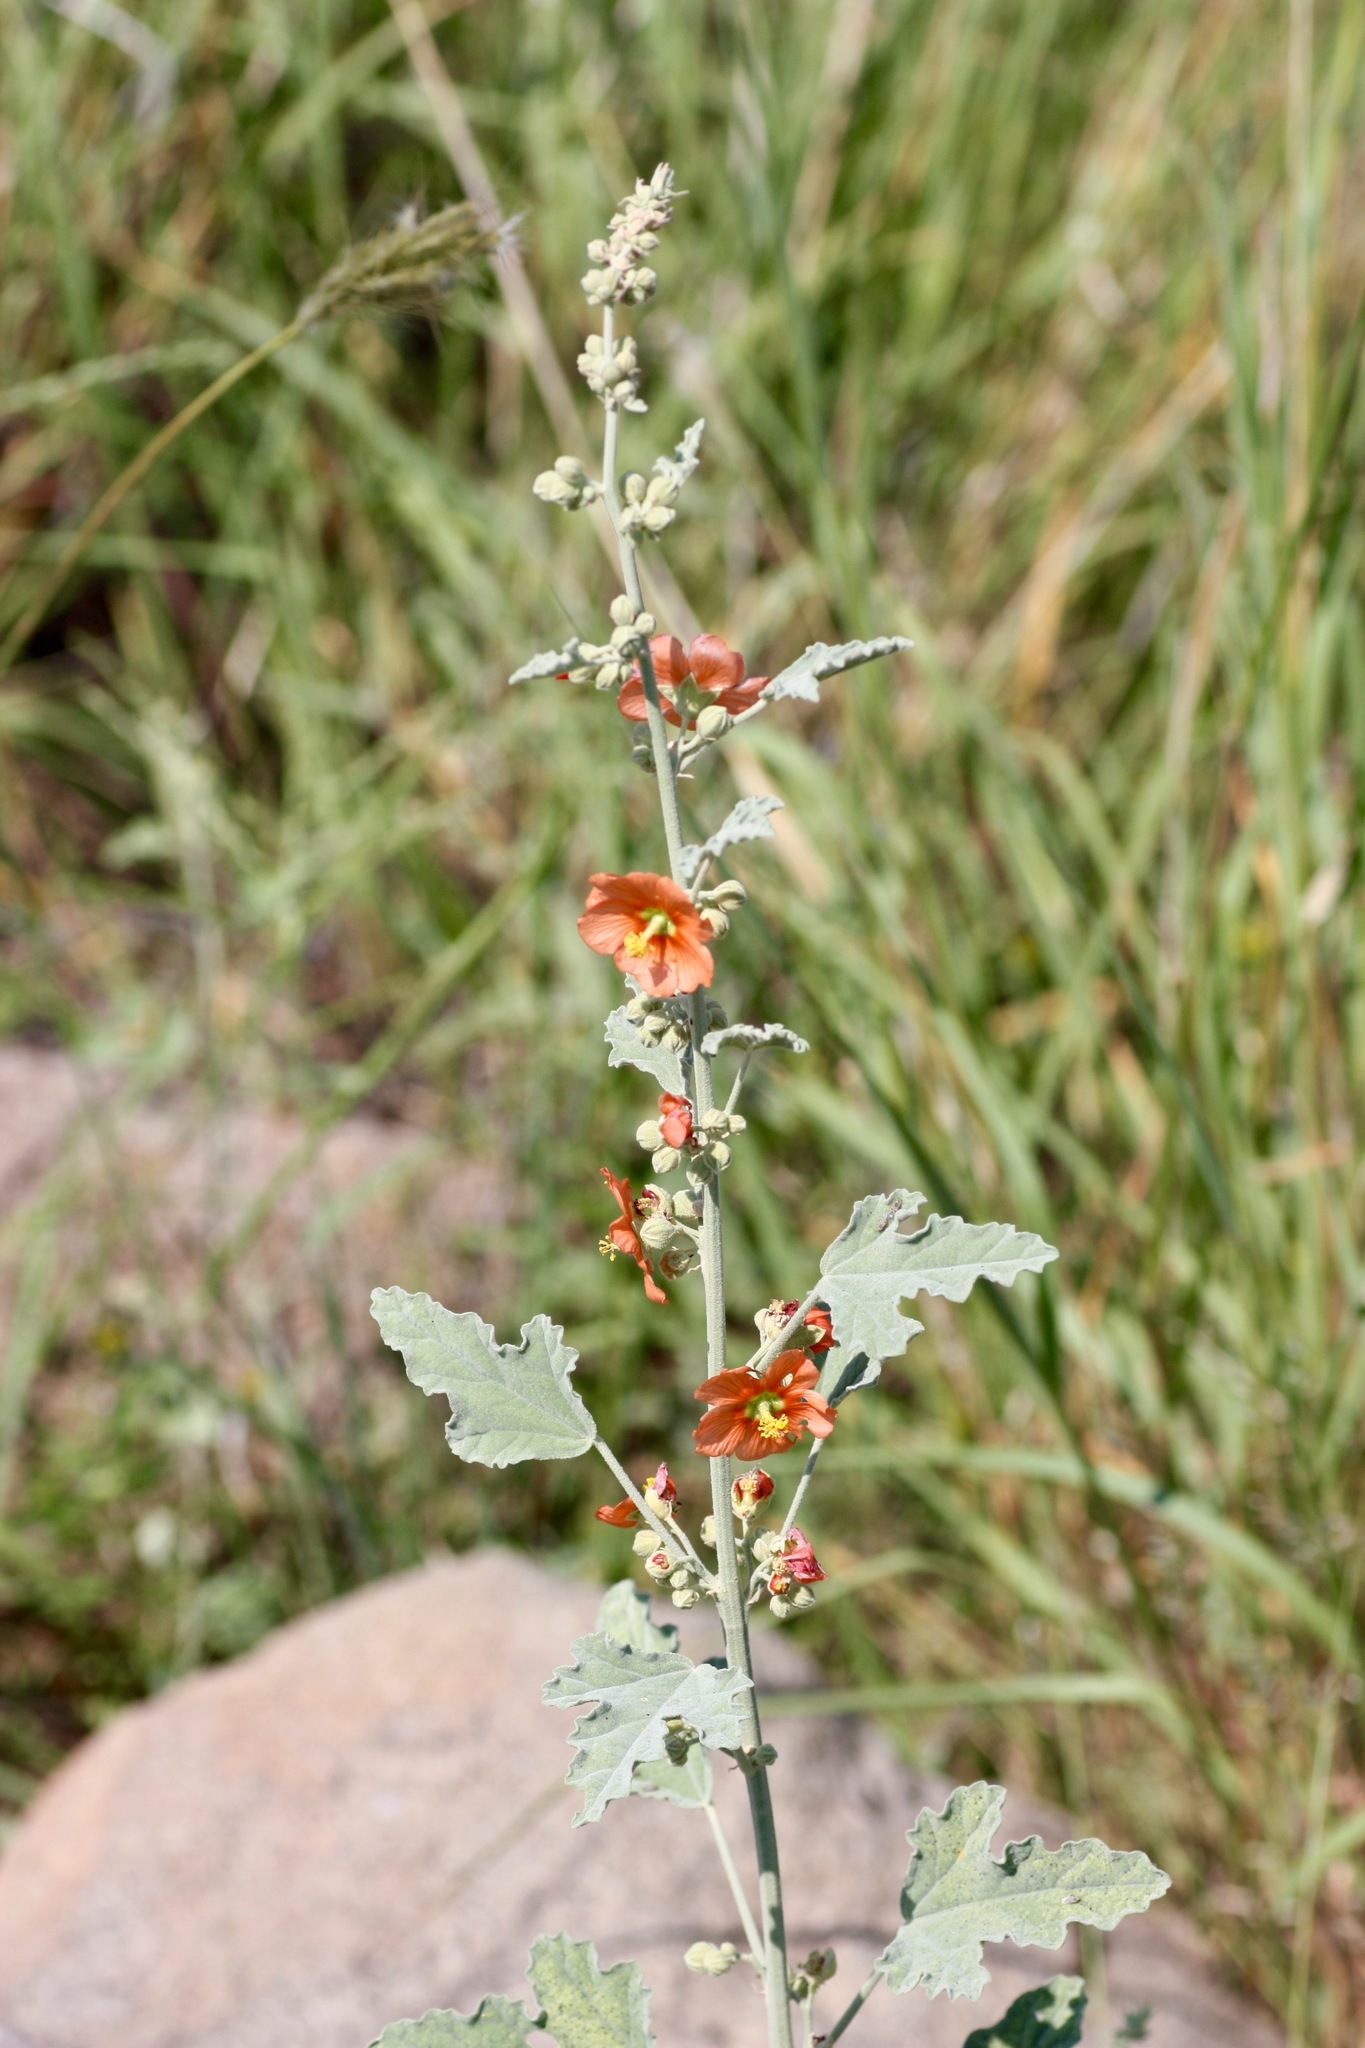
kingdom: Plantae
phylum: Tracheophyta
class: Magnoliopsida
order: Malvales
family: Malvaceae
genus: Sphaeralcea
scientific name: Sphaeralcea incana
